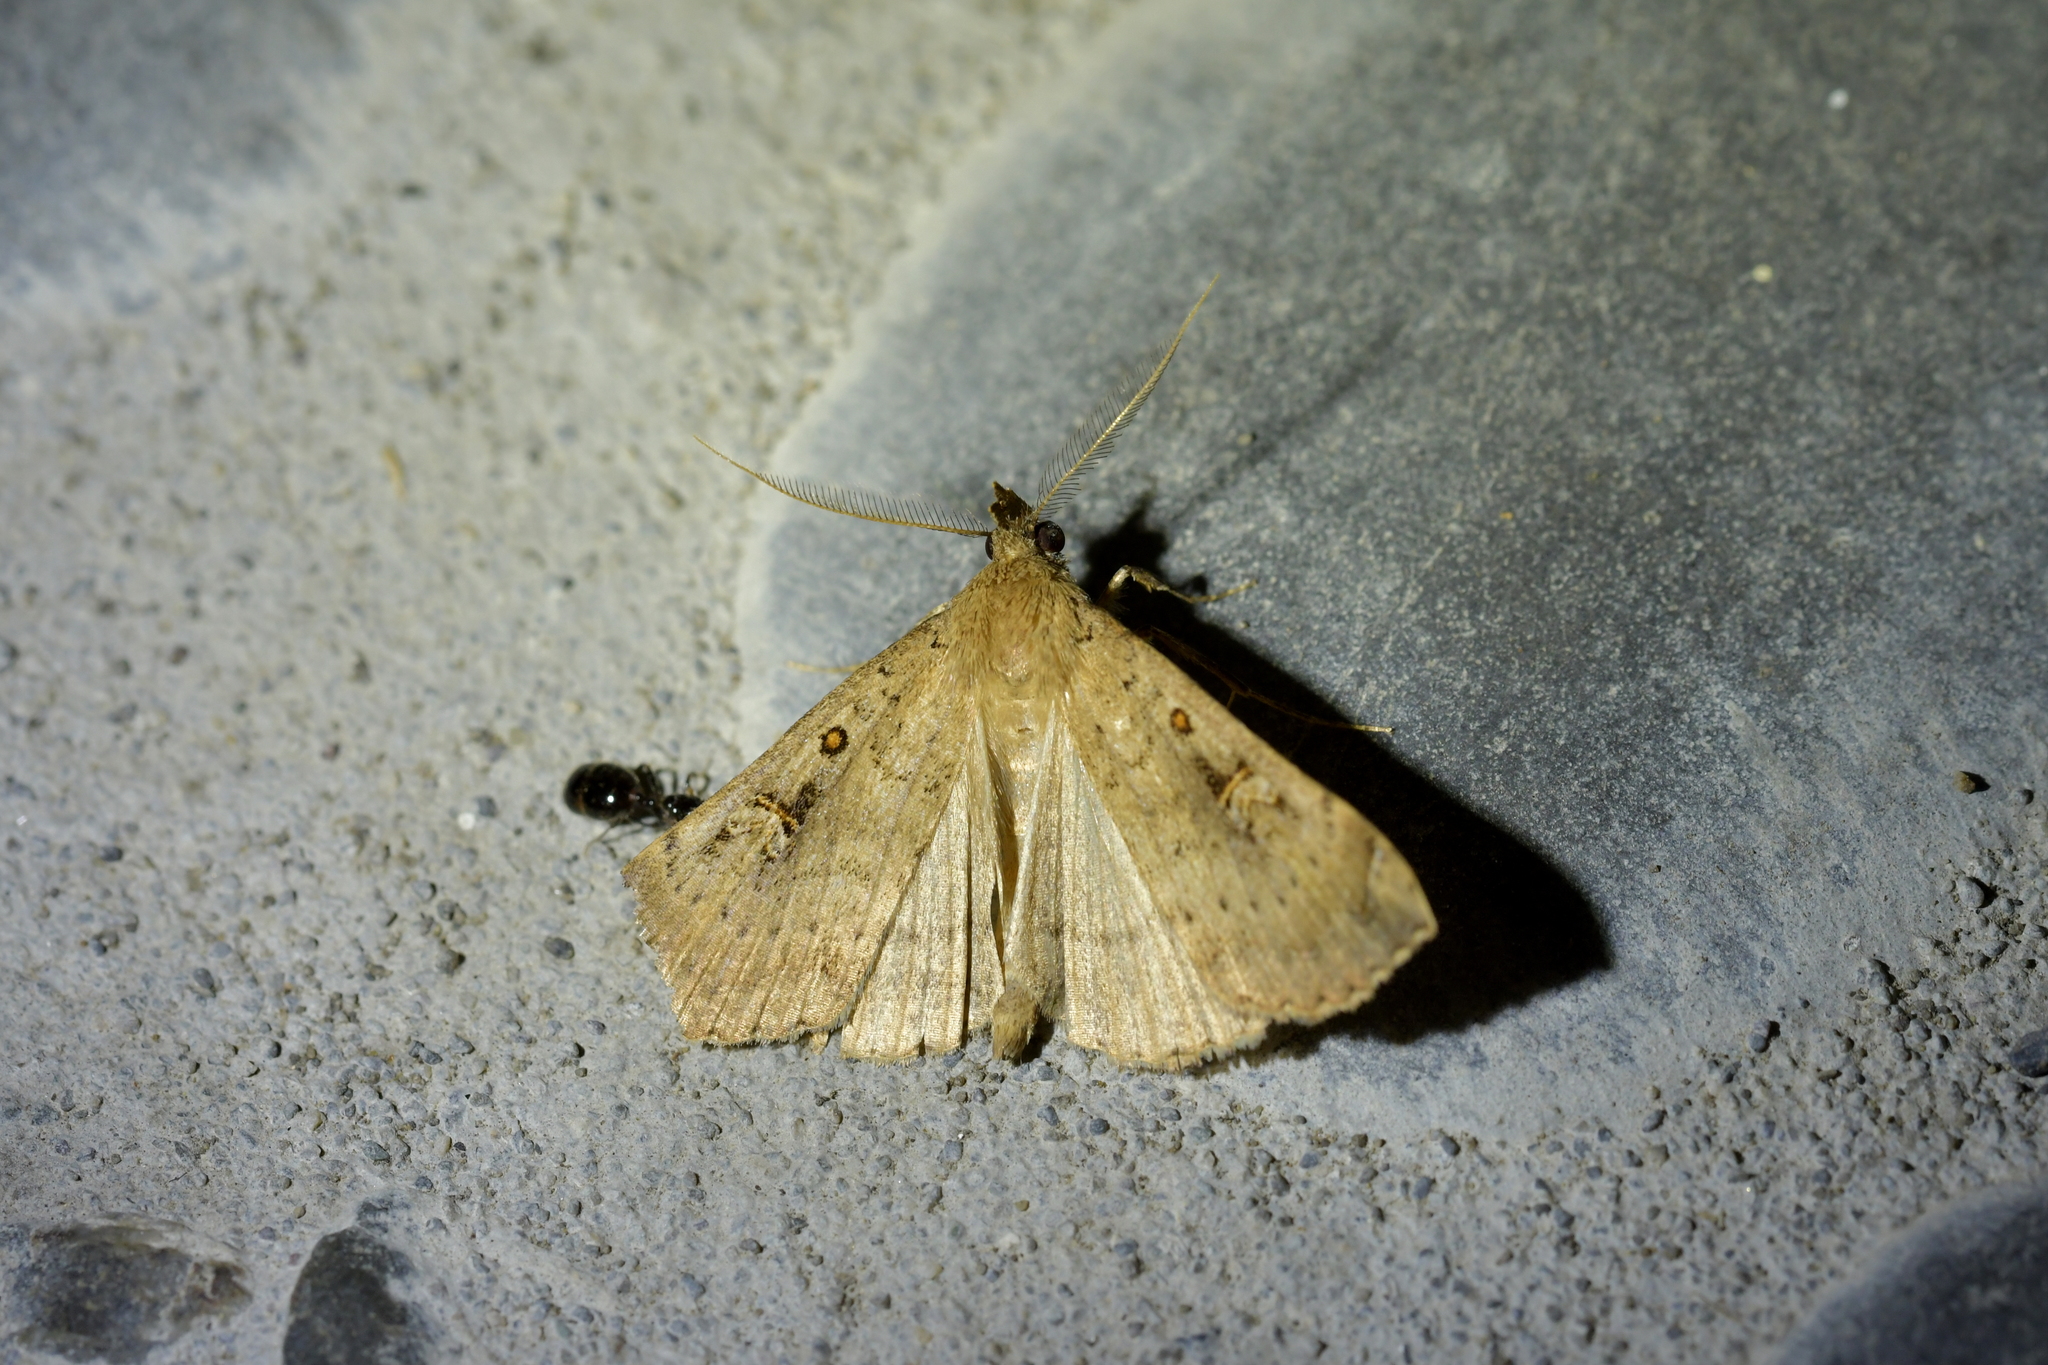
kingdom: Animalia
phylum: Arthropoda
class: Insecta
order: Lepidoptera
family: Erebidae
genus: Rhapsa
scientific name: Rhapsa scotosialis
